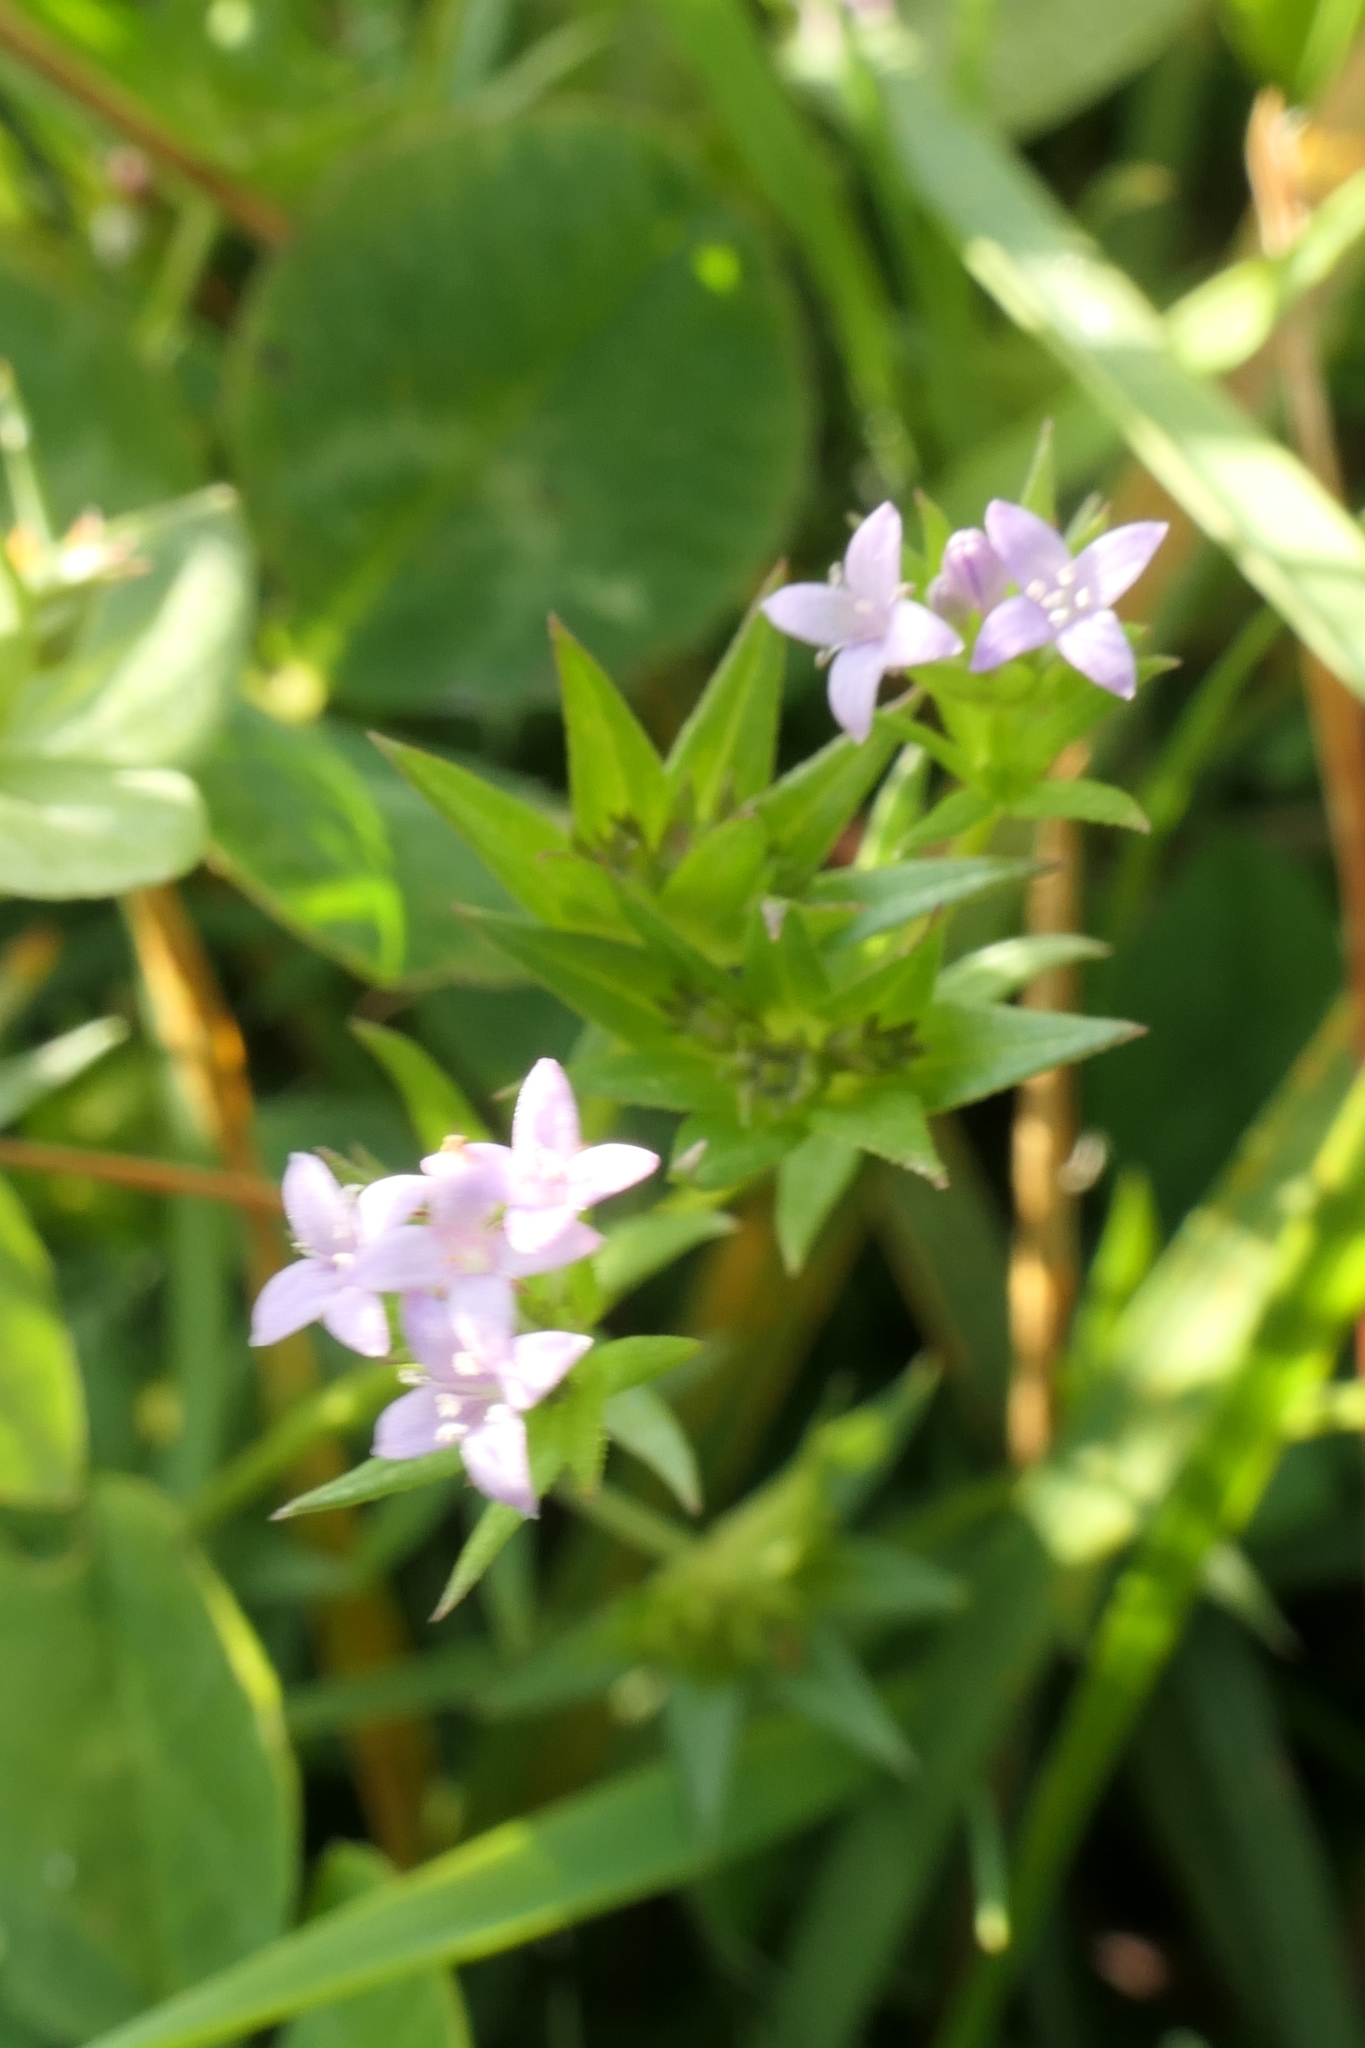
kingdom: Plantae
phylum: Tracheophyta
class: Magnoliopsida
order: Gentianales
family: Rubiaceae
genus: Sherardia
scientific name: Sherardia arvensis
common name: Field madder
